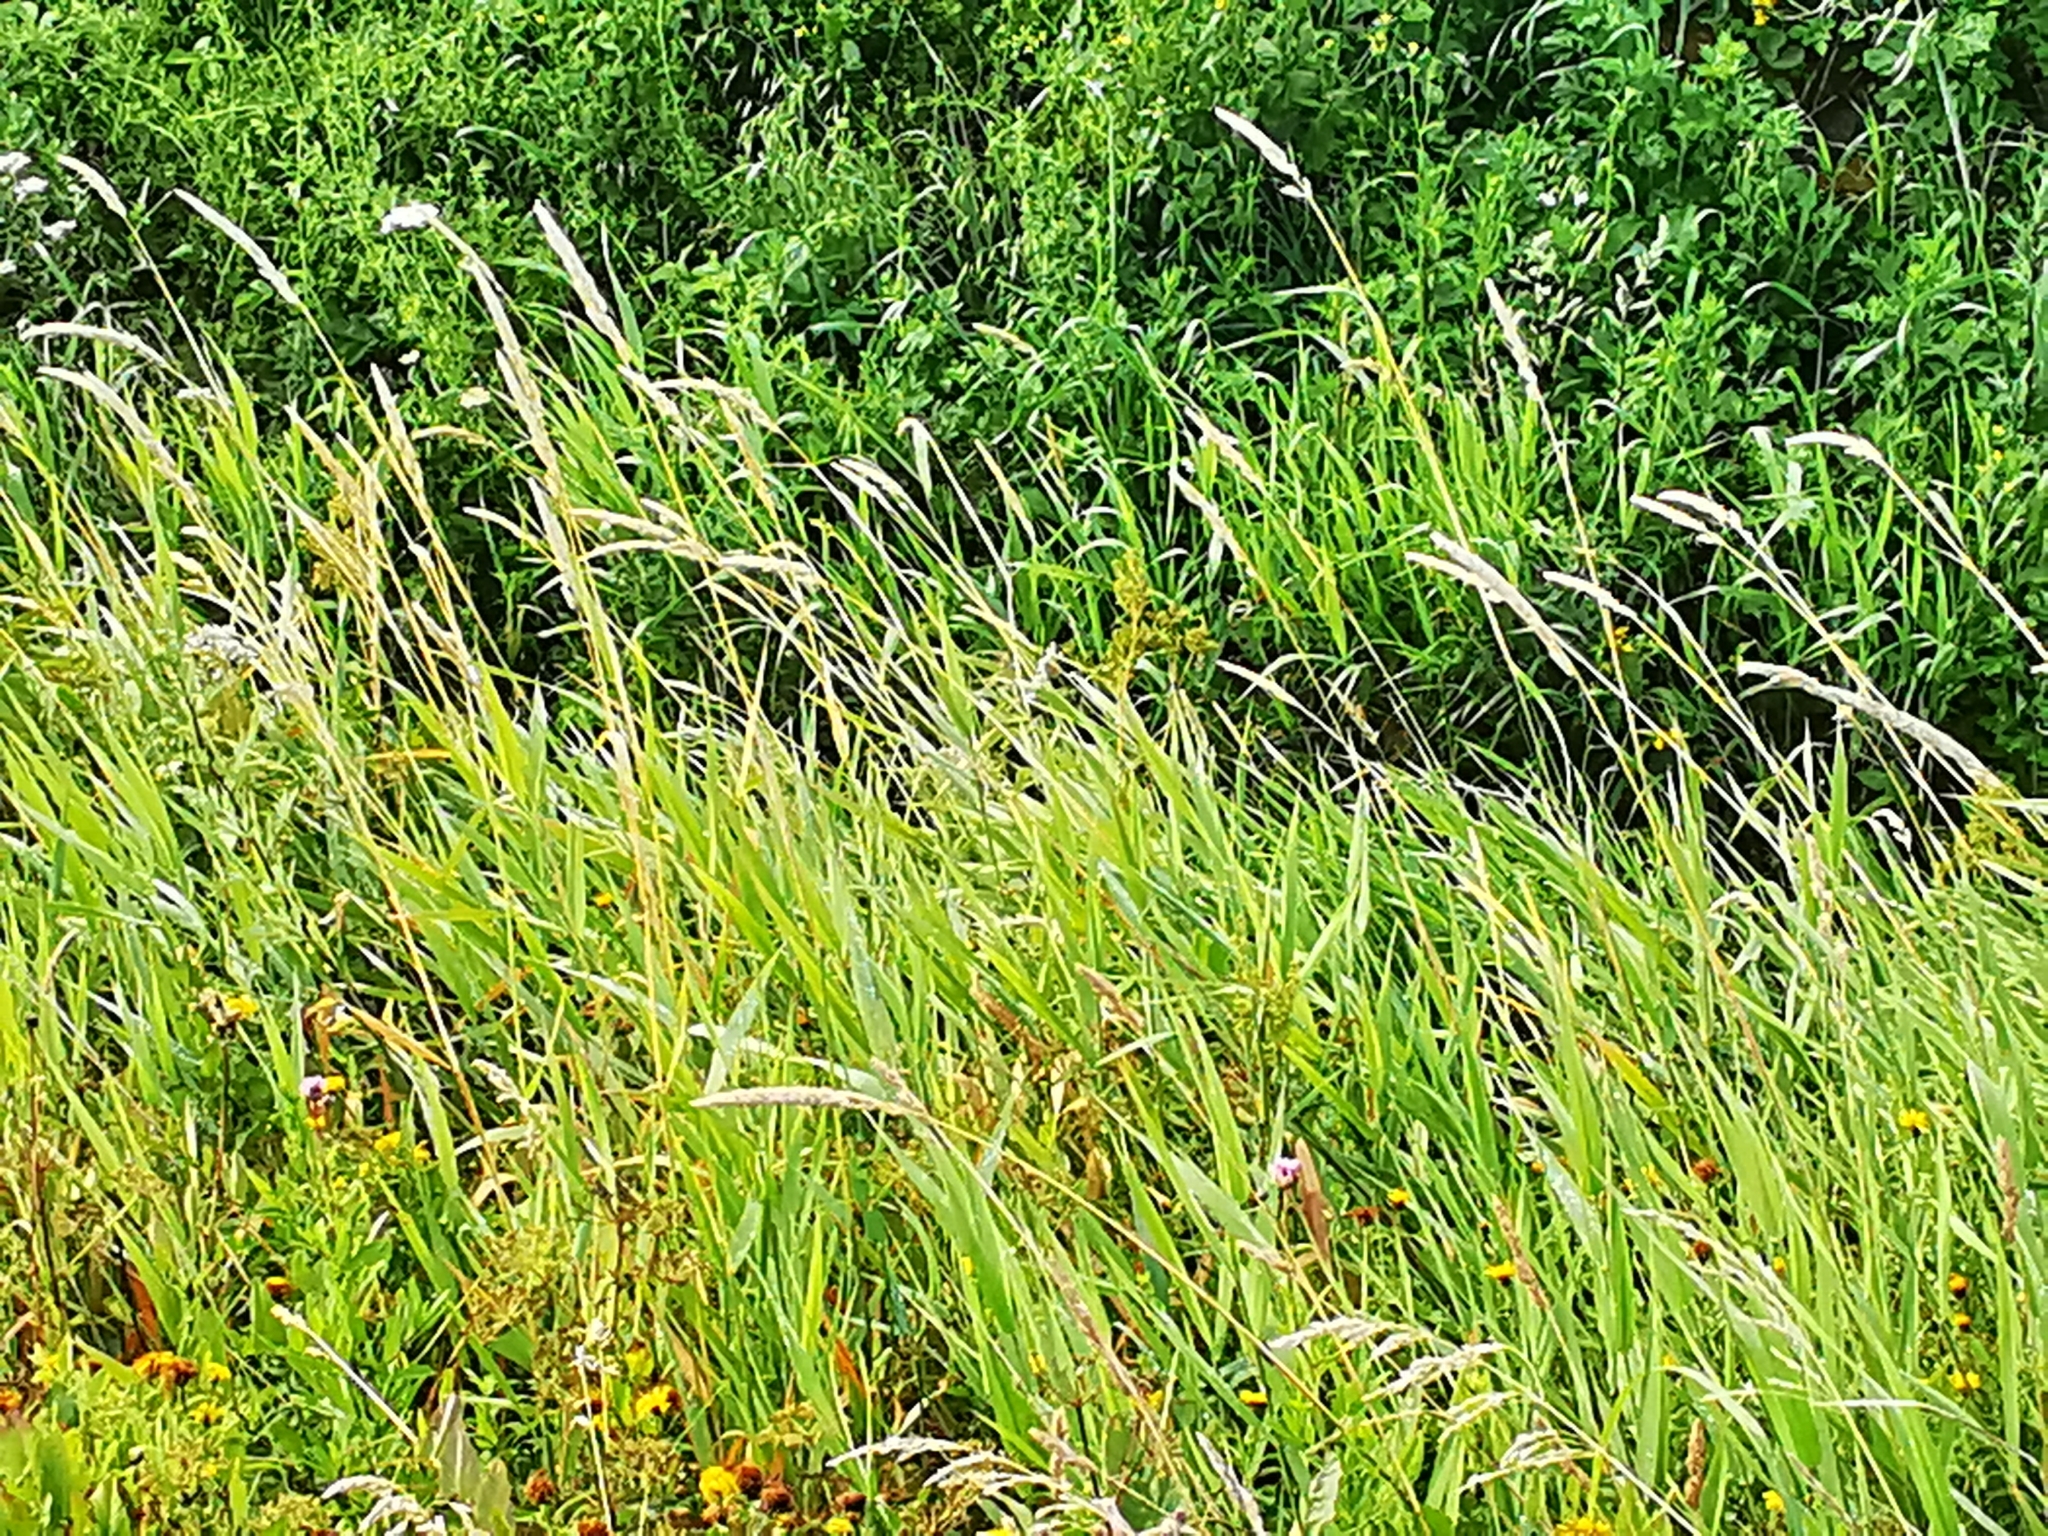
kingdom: Plantae
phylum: Tracheophyta
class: Liliopsida
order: Poales
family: Poaceae
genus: Phalaris
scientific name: Phalaris arundinacea
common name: Reed canary-grass
